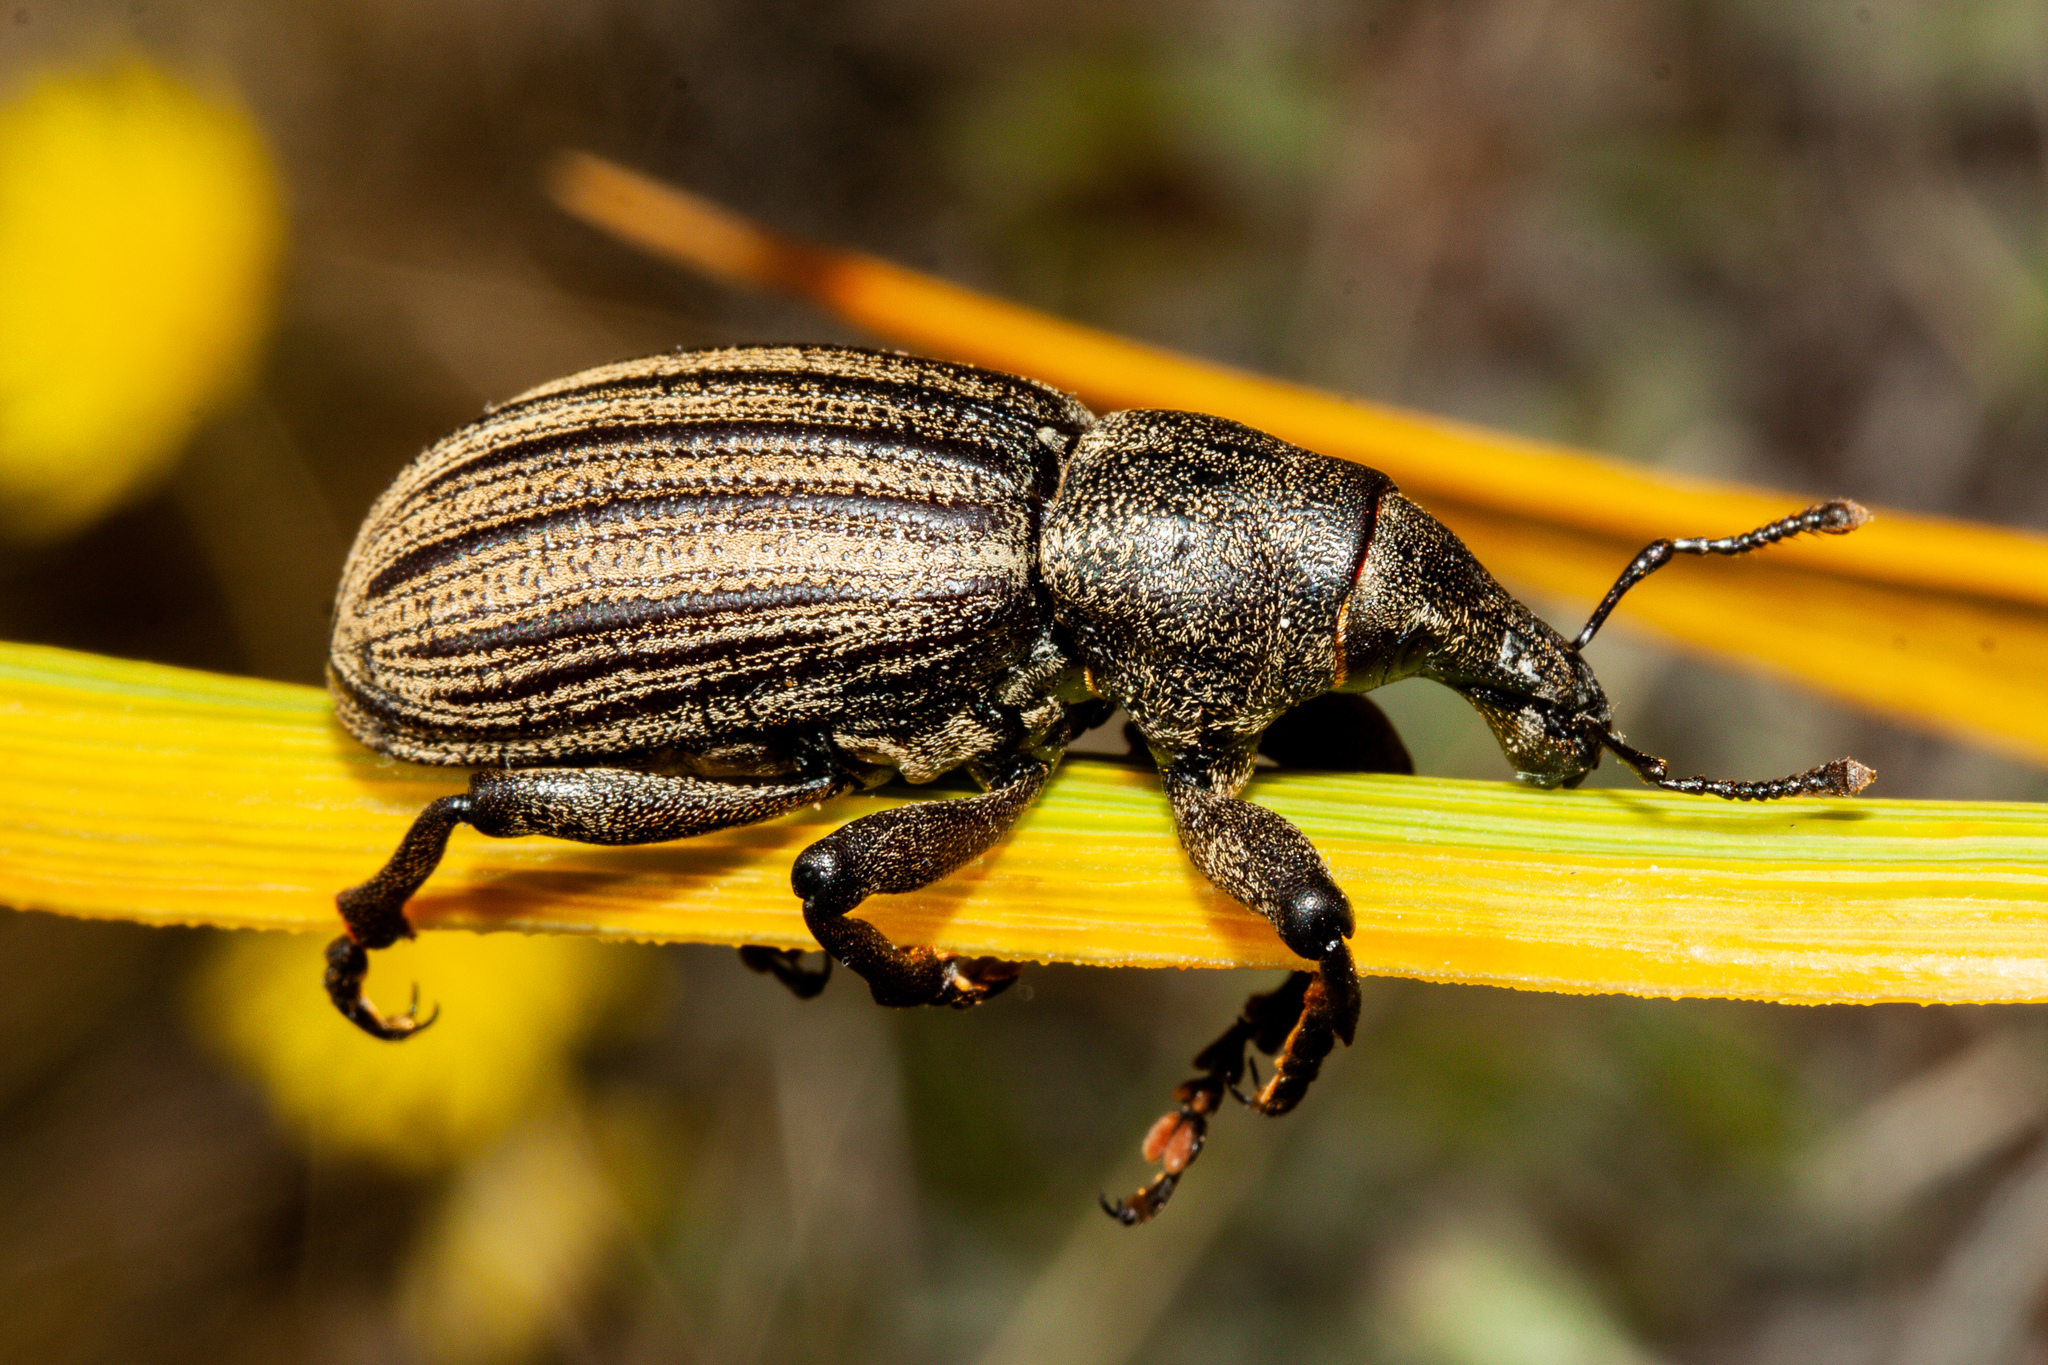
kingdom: Animalia
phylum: Arthropoda
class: Insecta
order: Coleoptera
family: Curculionidae
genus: Lyperobius
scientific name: Lyperobius barbarae
